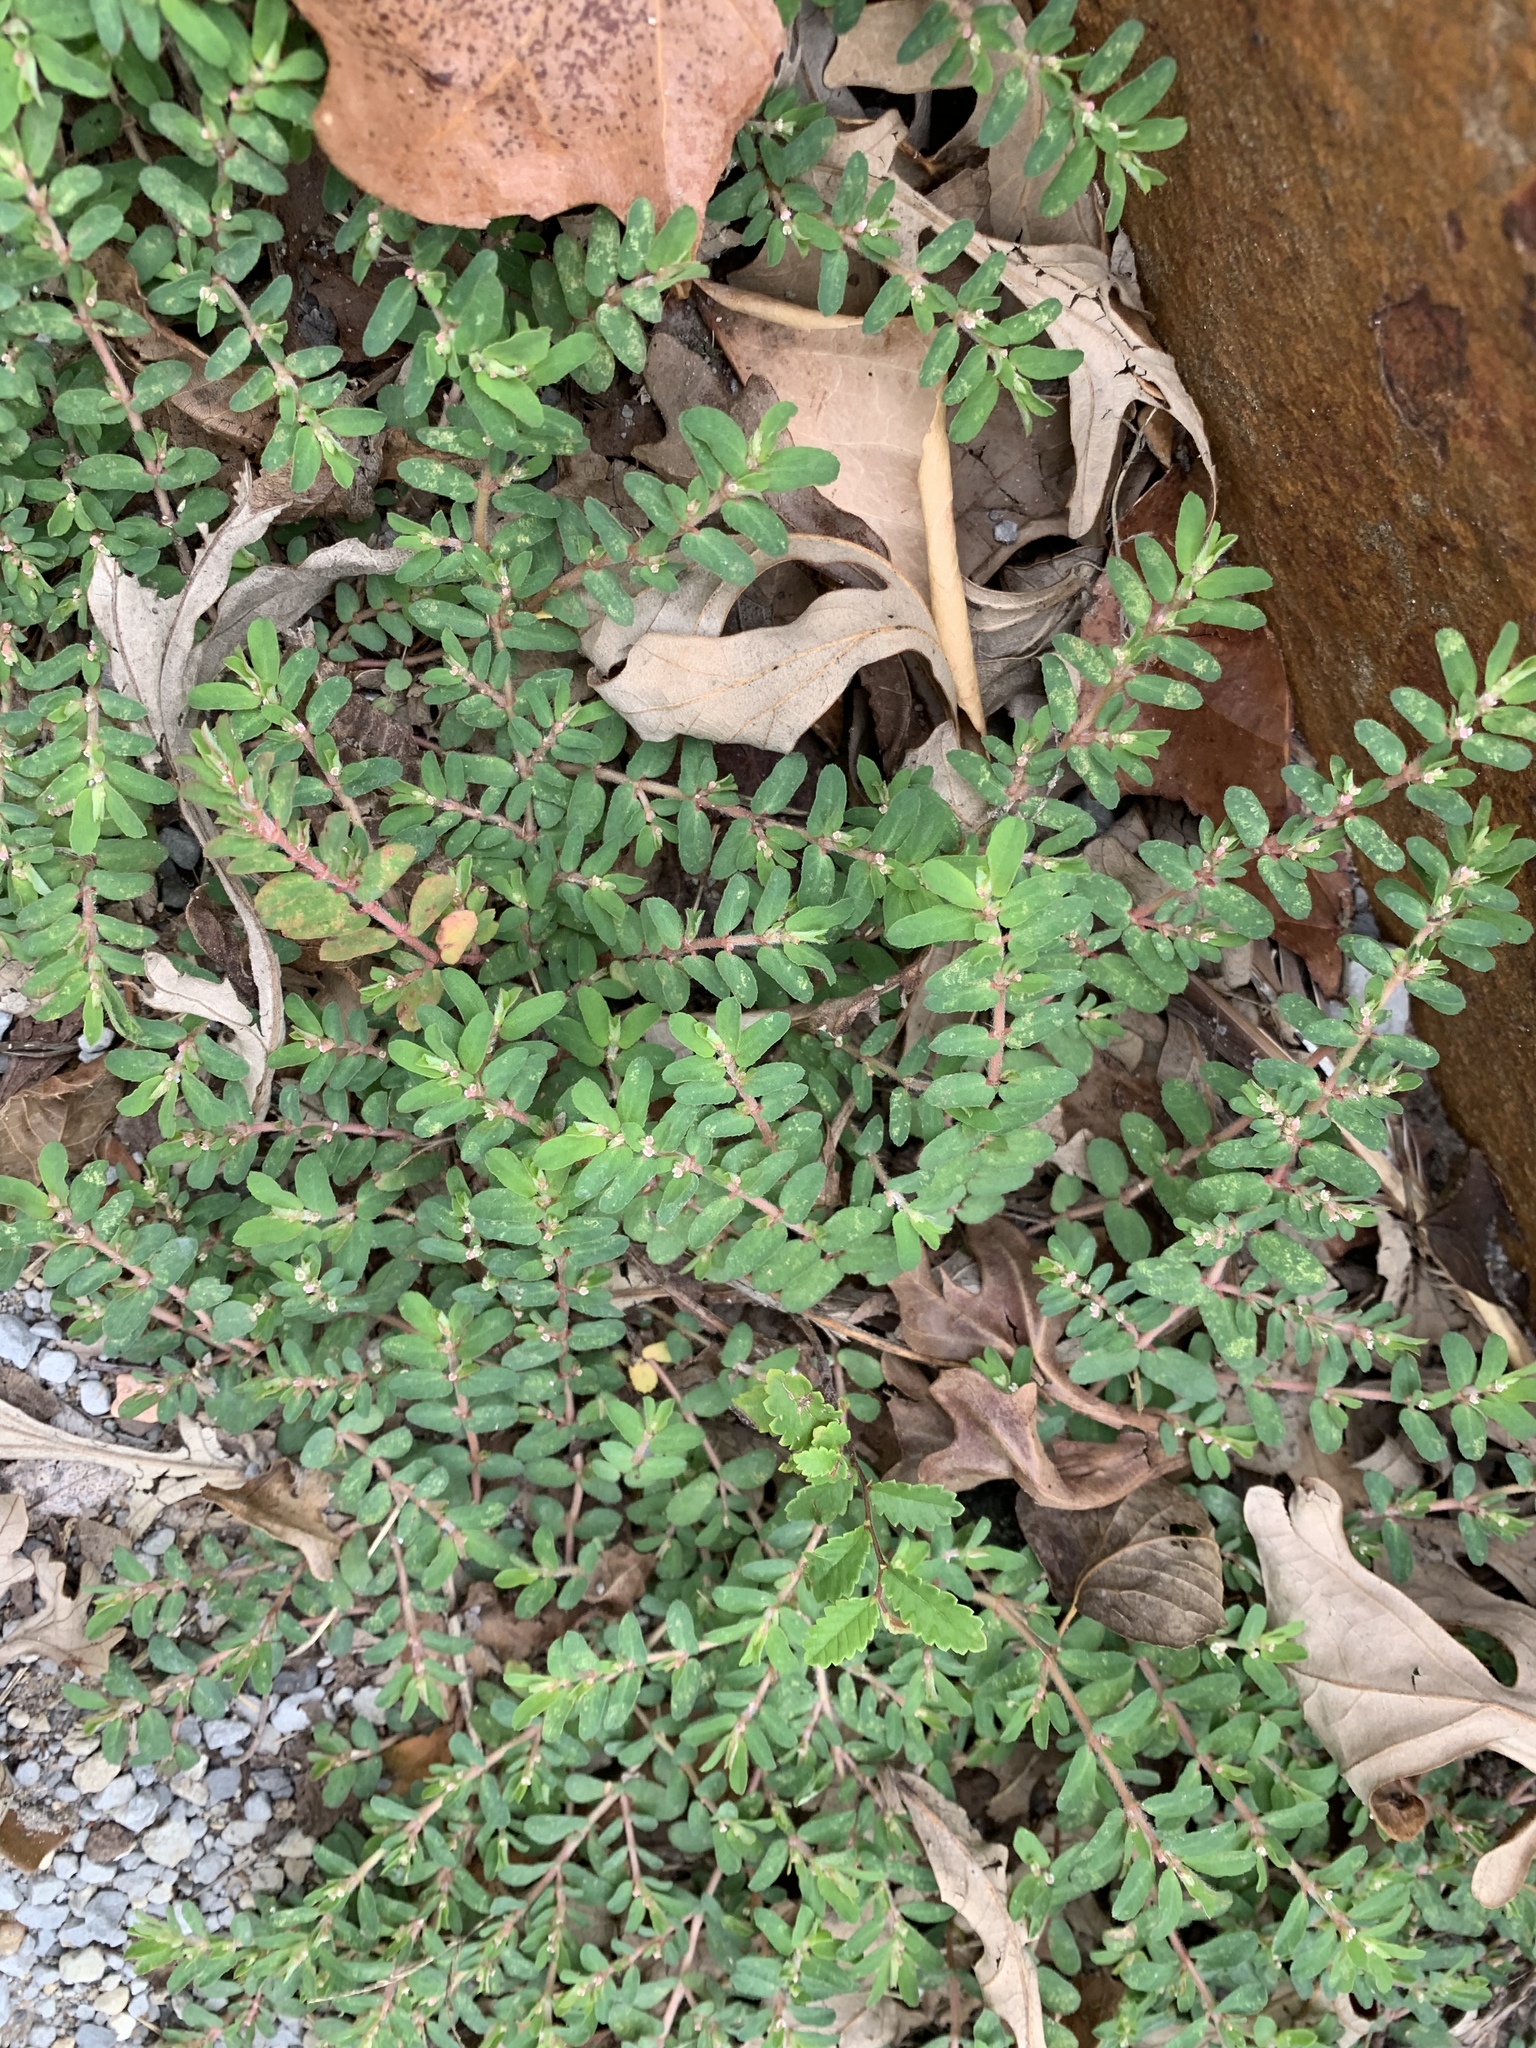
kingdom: Plantae
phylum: Tracheophyta
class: Magnoliopsida
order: Malpighiales
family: Euphorbiaceae
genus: Euphorbia
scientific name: Euphorbia maculata
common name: Spotted spurge
